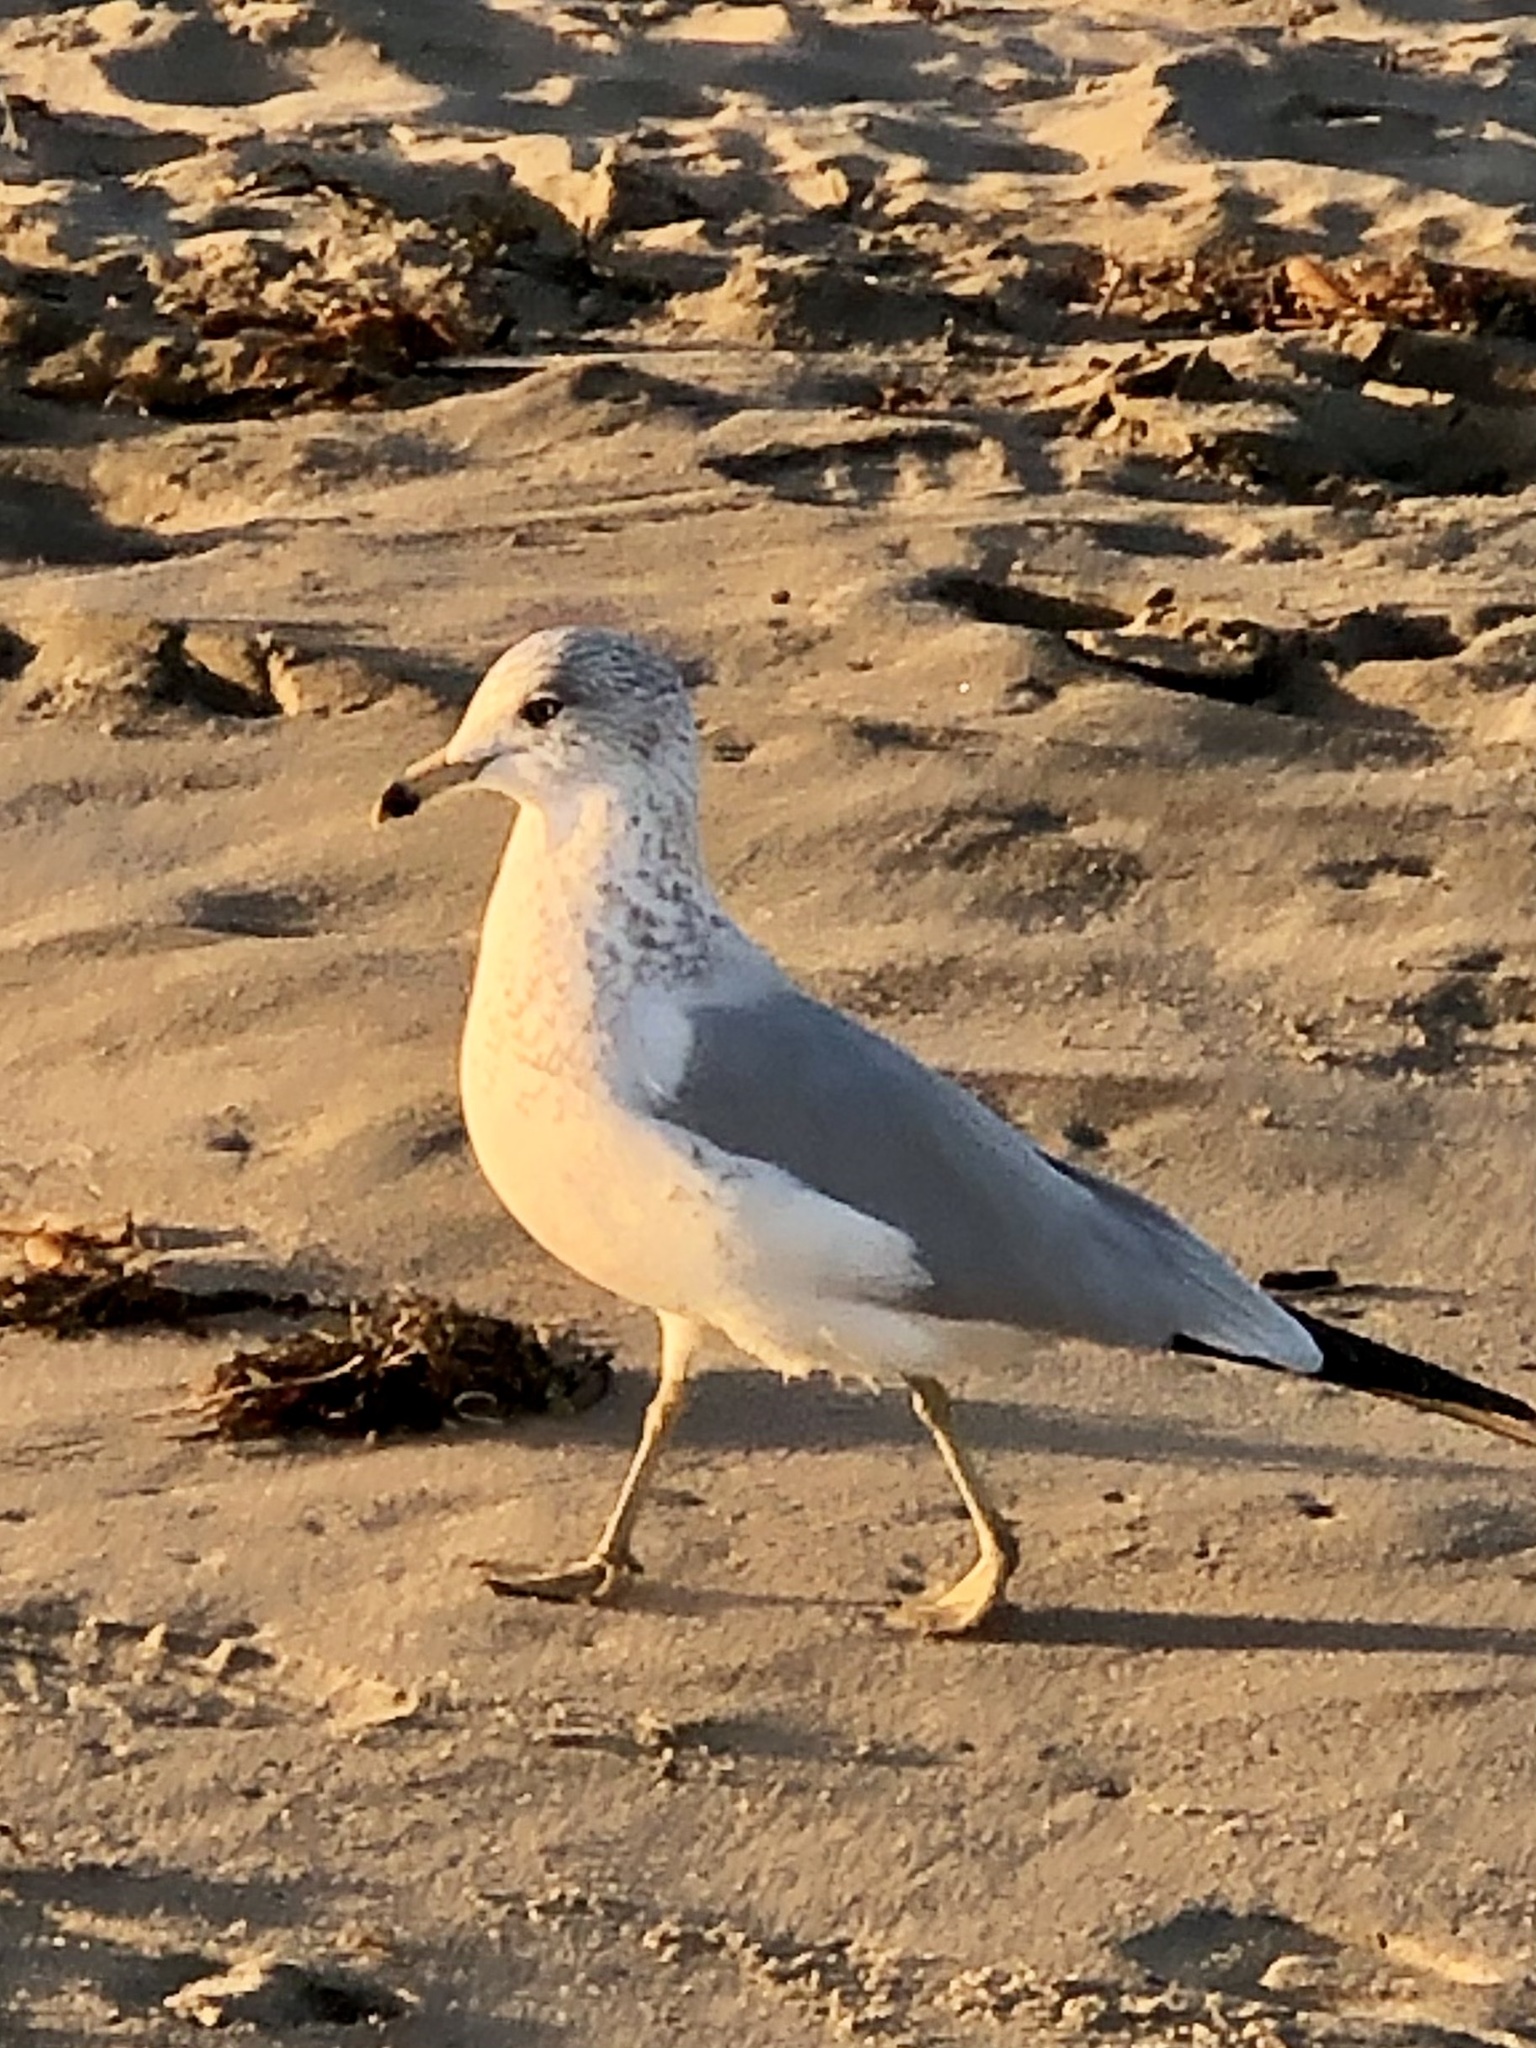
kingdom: Animalia
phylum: Chordata
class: Aves
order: Charadriiformes
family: Laridae
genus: Larus
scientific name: Larus delawarensis
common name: Ring-billed gull
